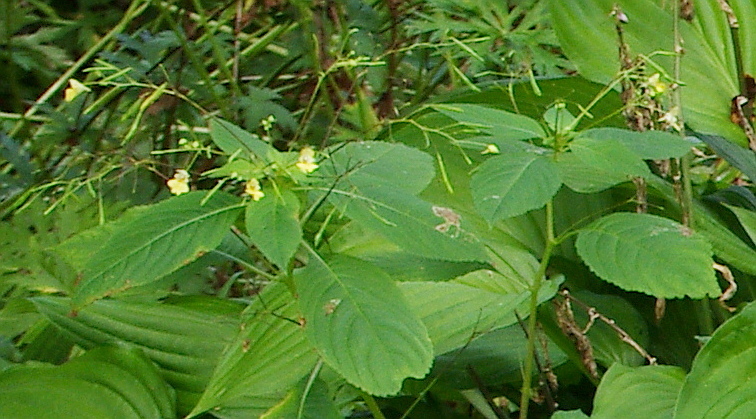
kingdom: Plantae
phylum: Tracheophyta
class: Magnoliopsida
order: Ericales
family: Balsaminaceae
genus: Impatiens
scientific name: Impatiens parviflora
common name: Small balsam
